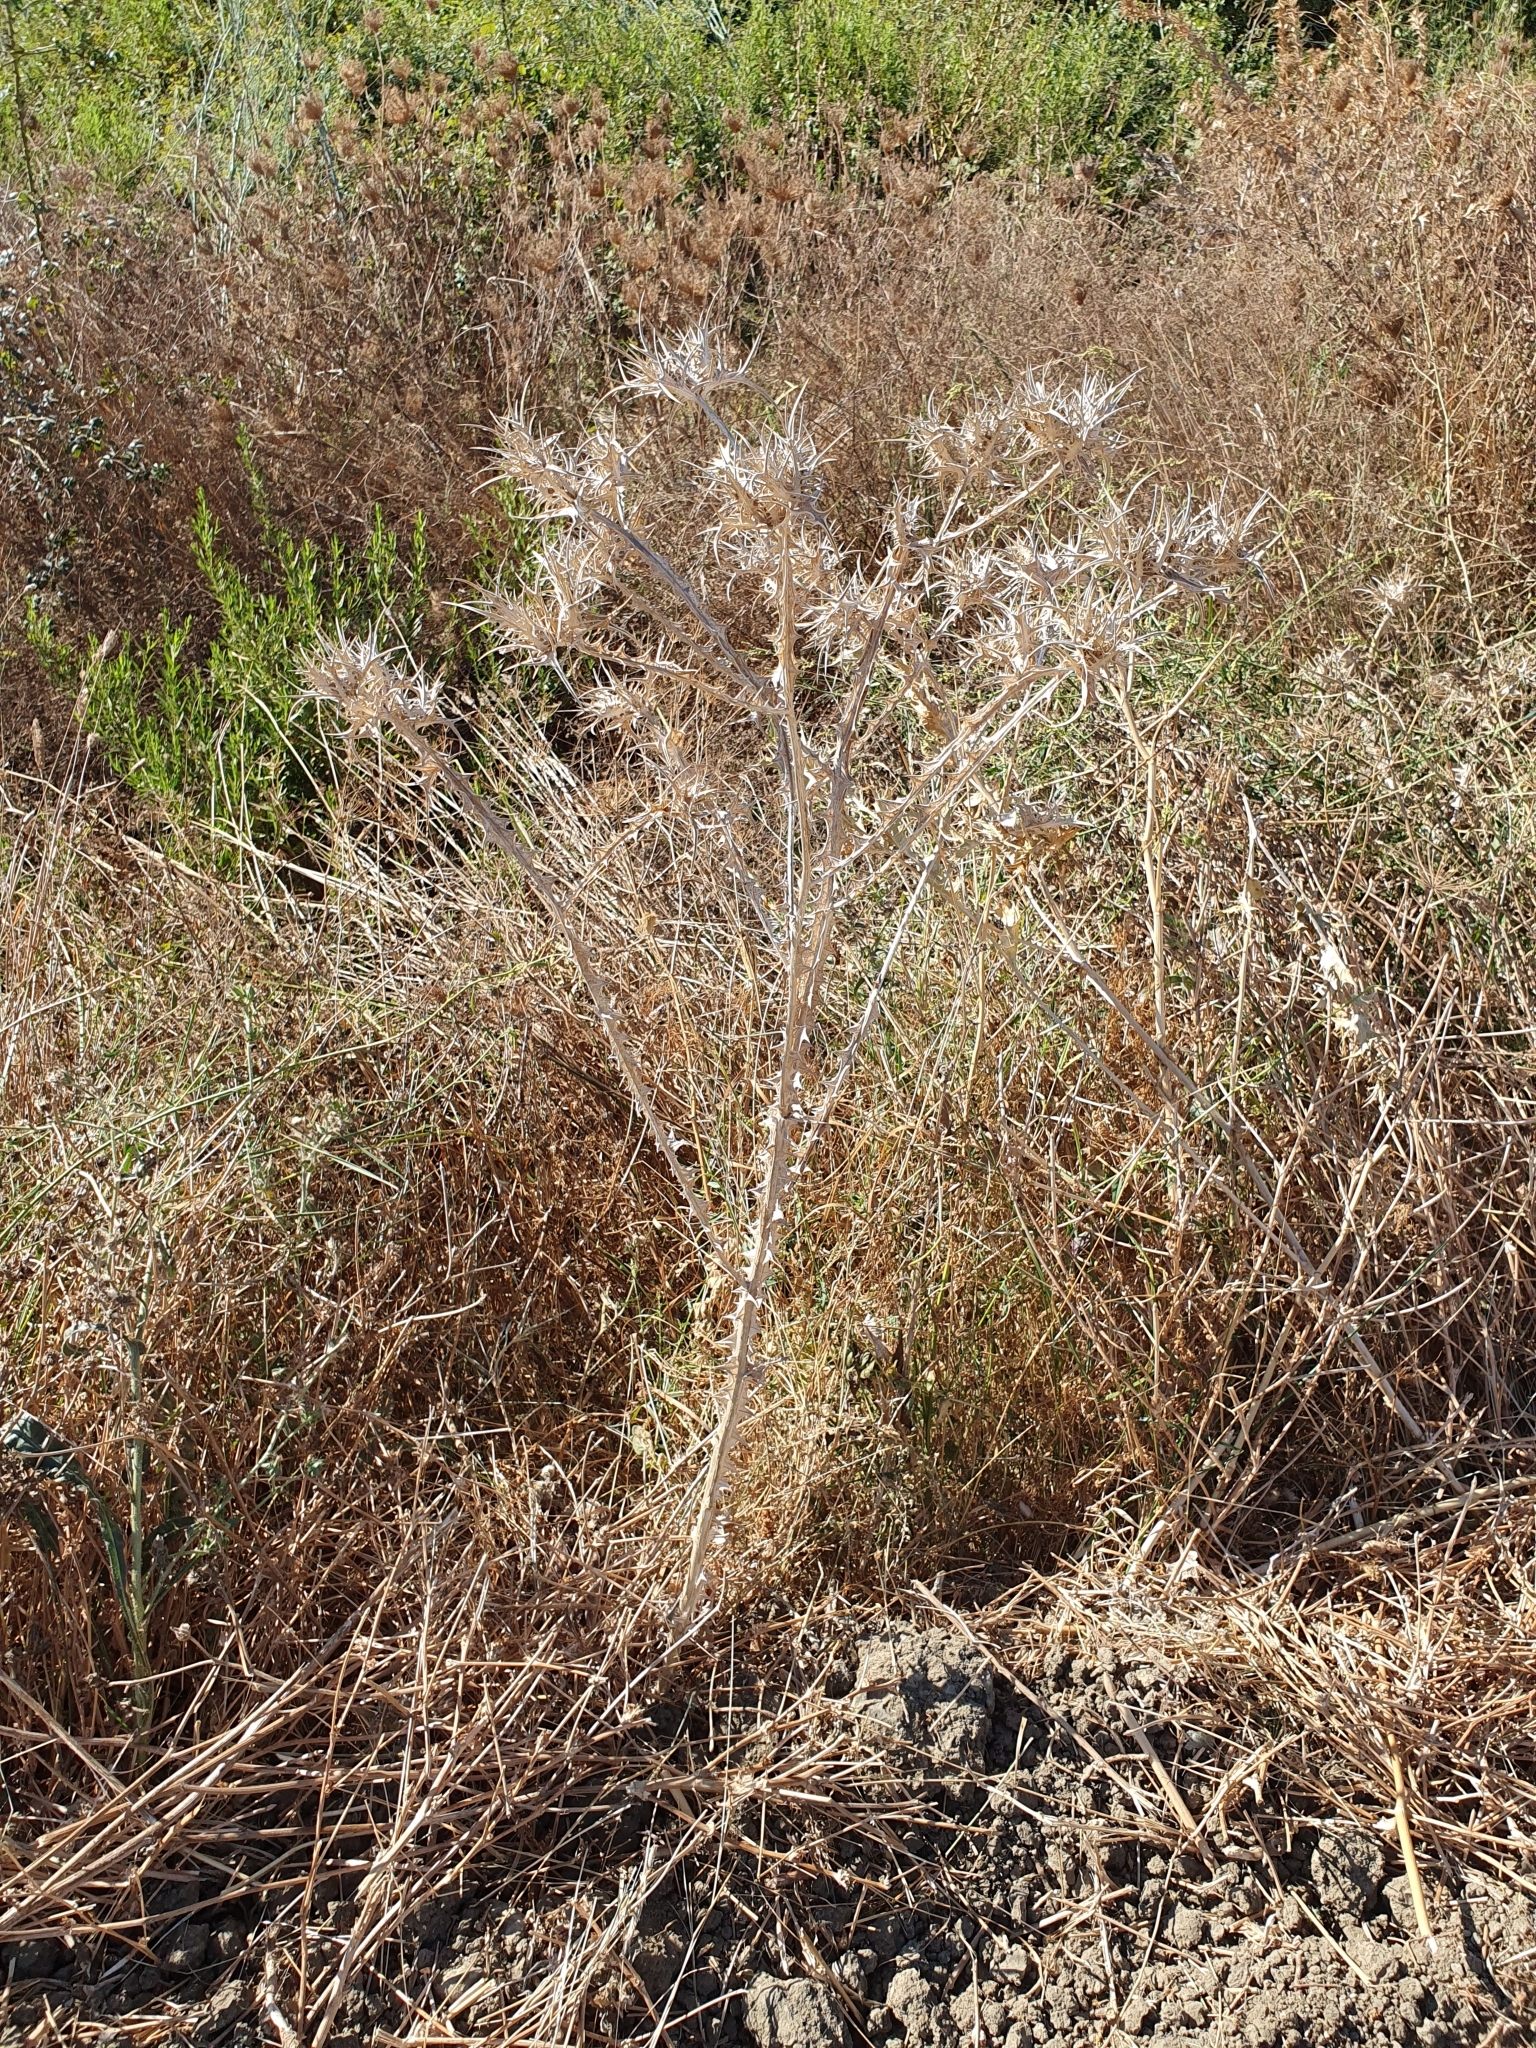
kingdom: Plantae
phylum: Tracheophyta
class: Magnoliopsida
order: Asterales
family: Asteraceae
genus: Scolymus
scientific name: Scolymus maculatus
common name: Spotted thistle
